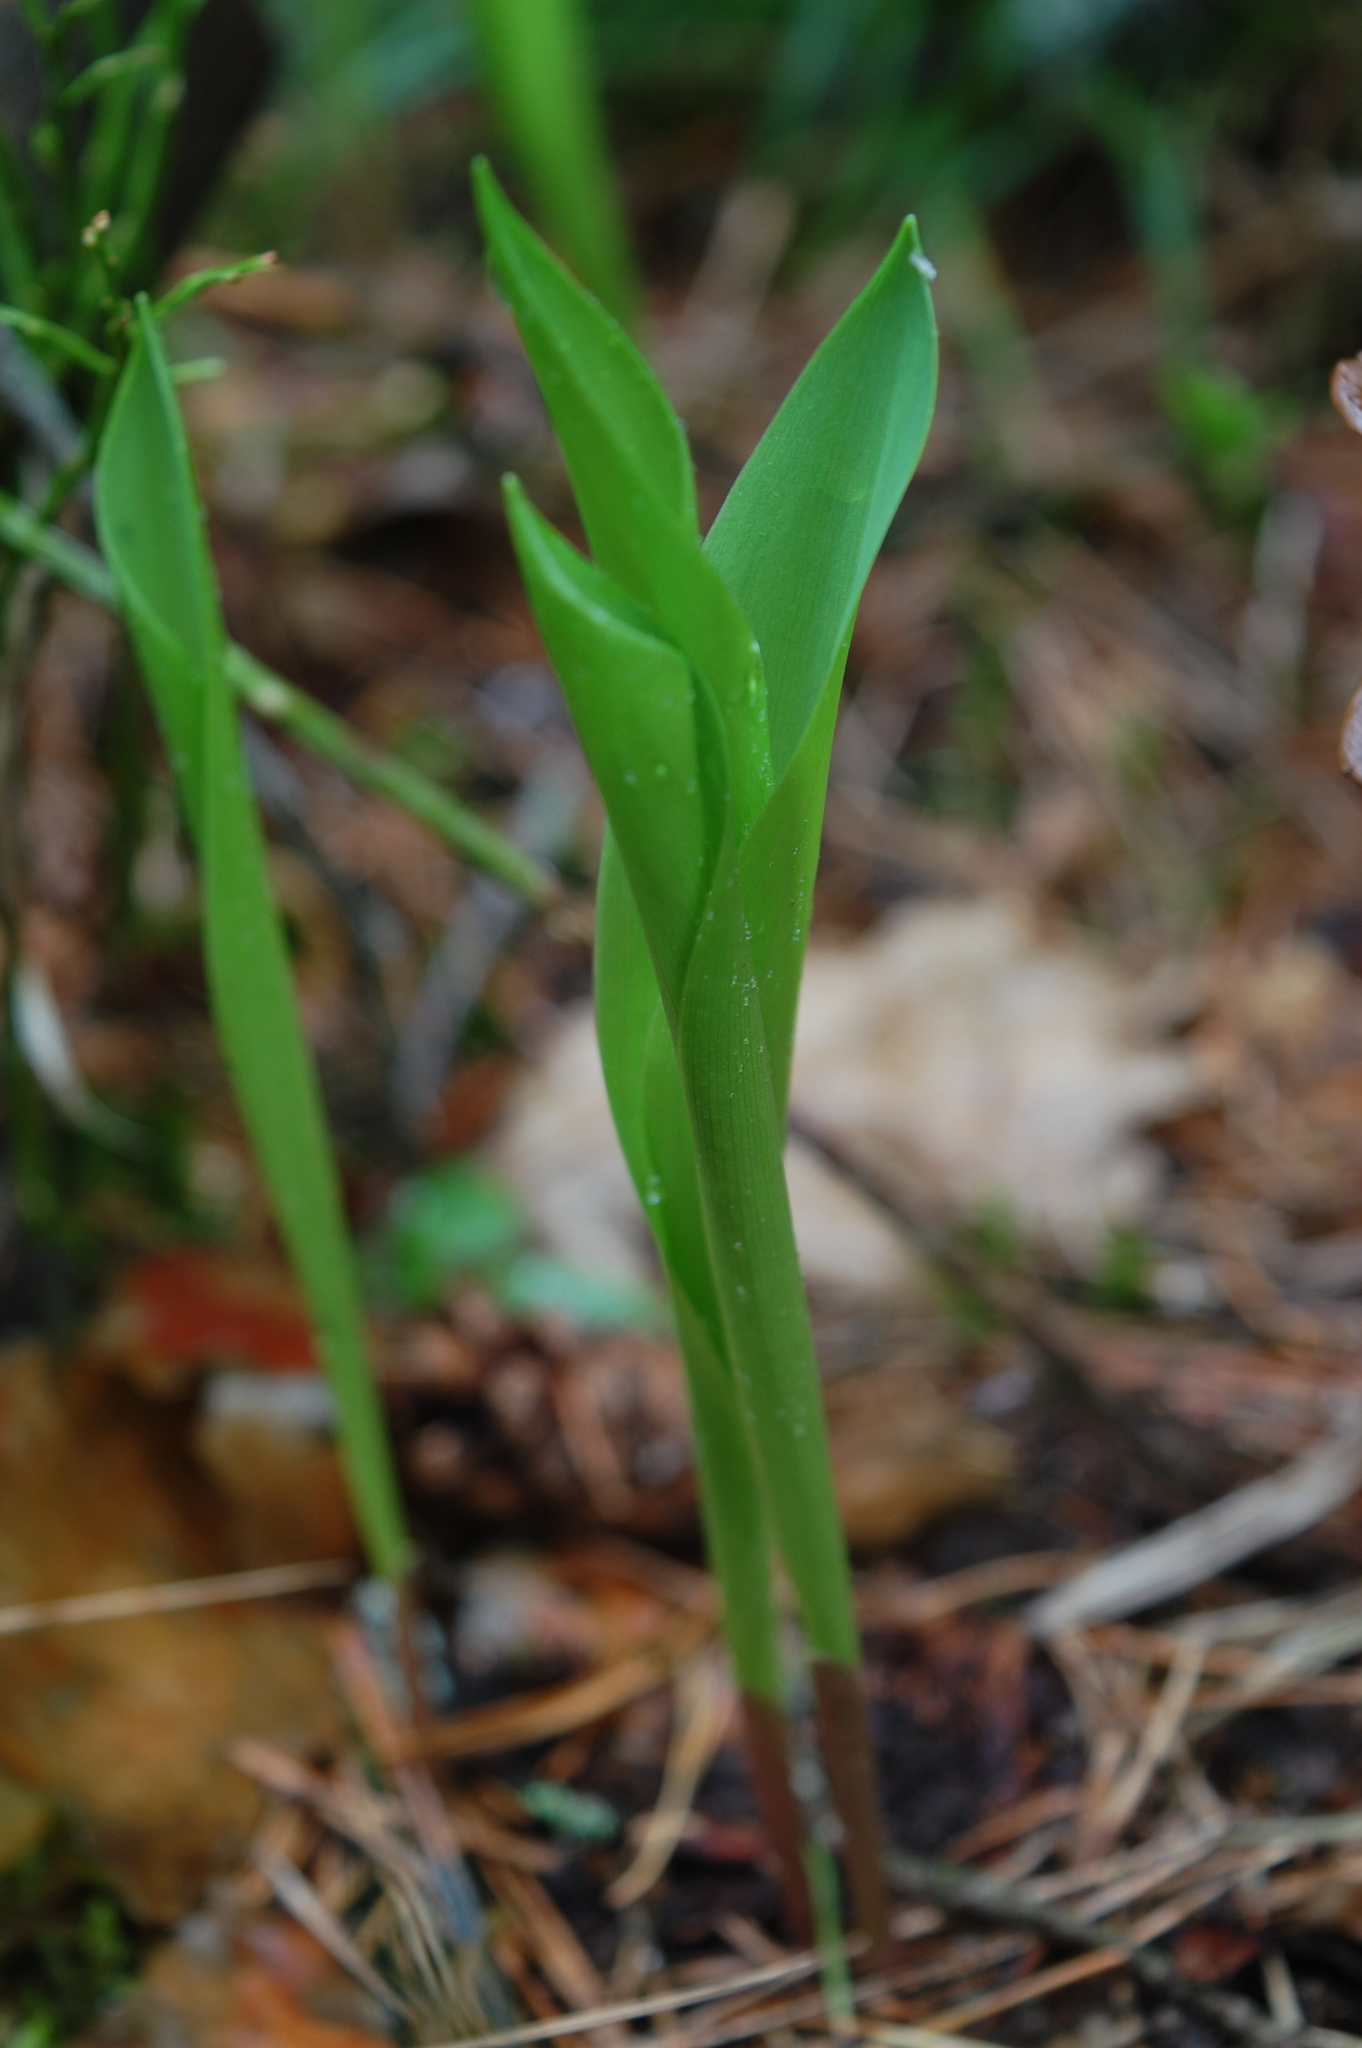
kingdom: Plantae
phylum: Tracheophyta
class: Liliopsida
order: Asparagales
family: Asparagaceae
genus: Convallaria
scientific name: Convallaria majalis
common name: Lily-of-the-valley
